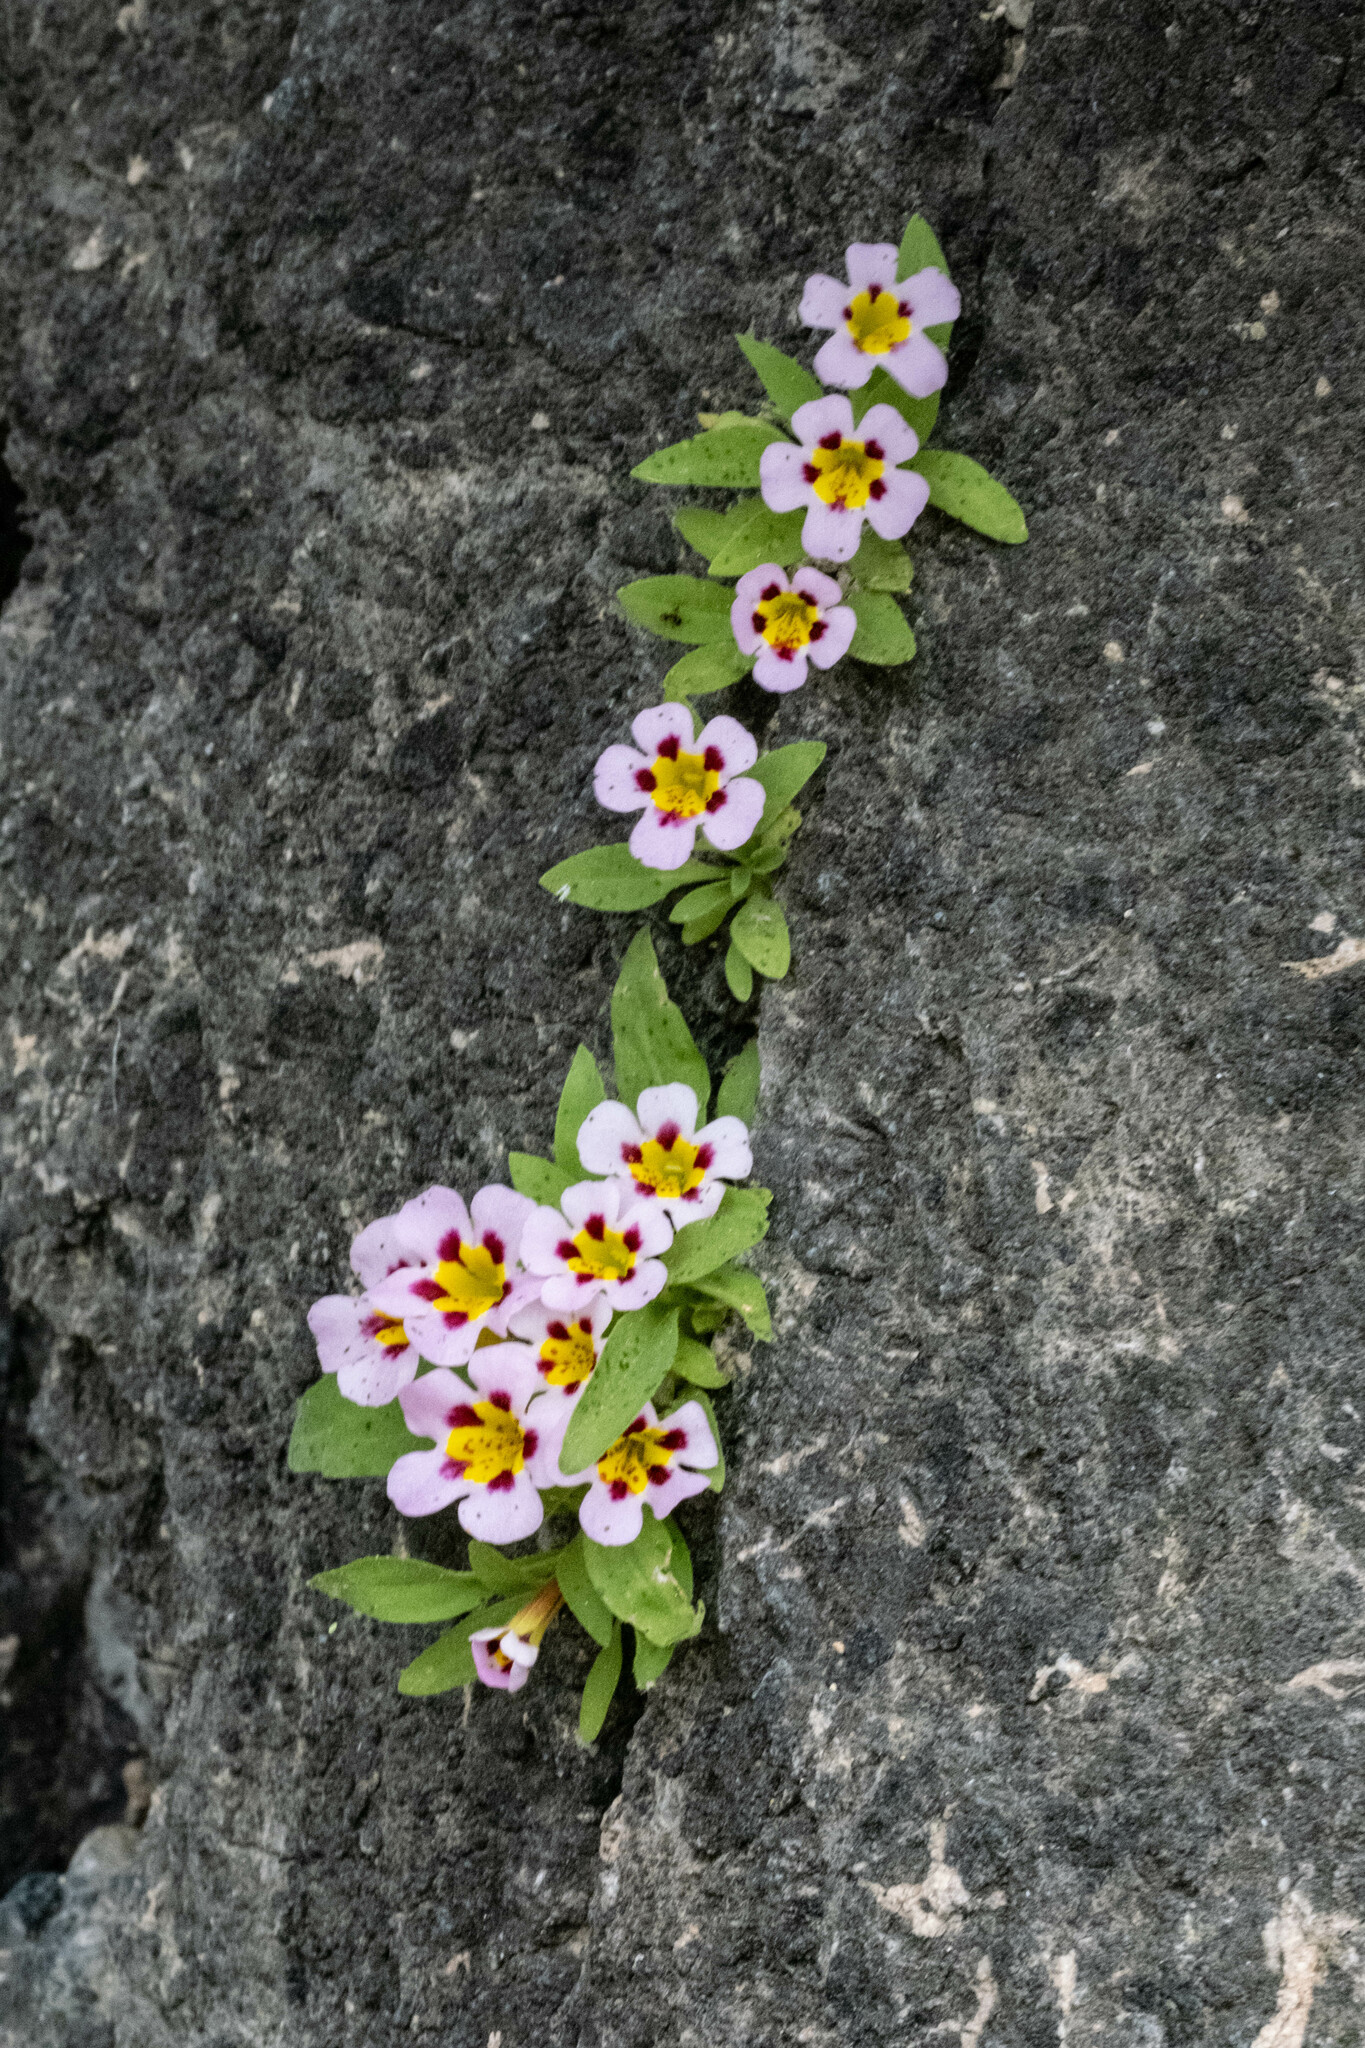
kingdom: Plantae
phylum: Tracheophyta
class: Magnoliopsida
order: Lamiales
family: Phrymaceae
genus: Diplacus
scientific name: Diplacus rupicola
